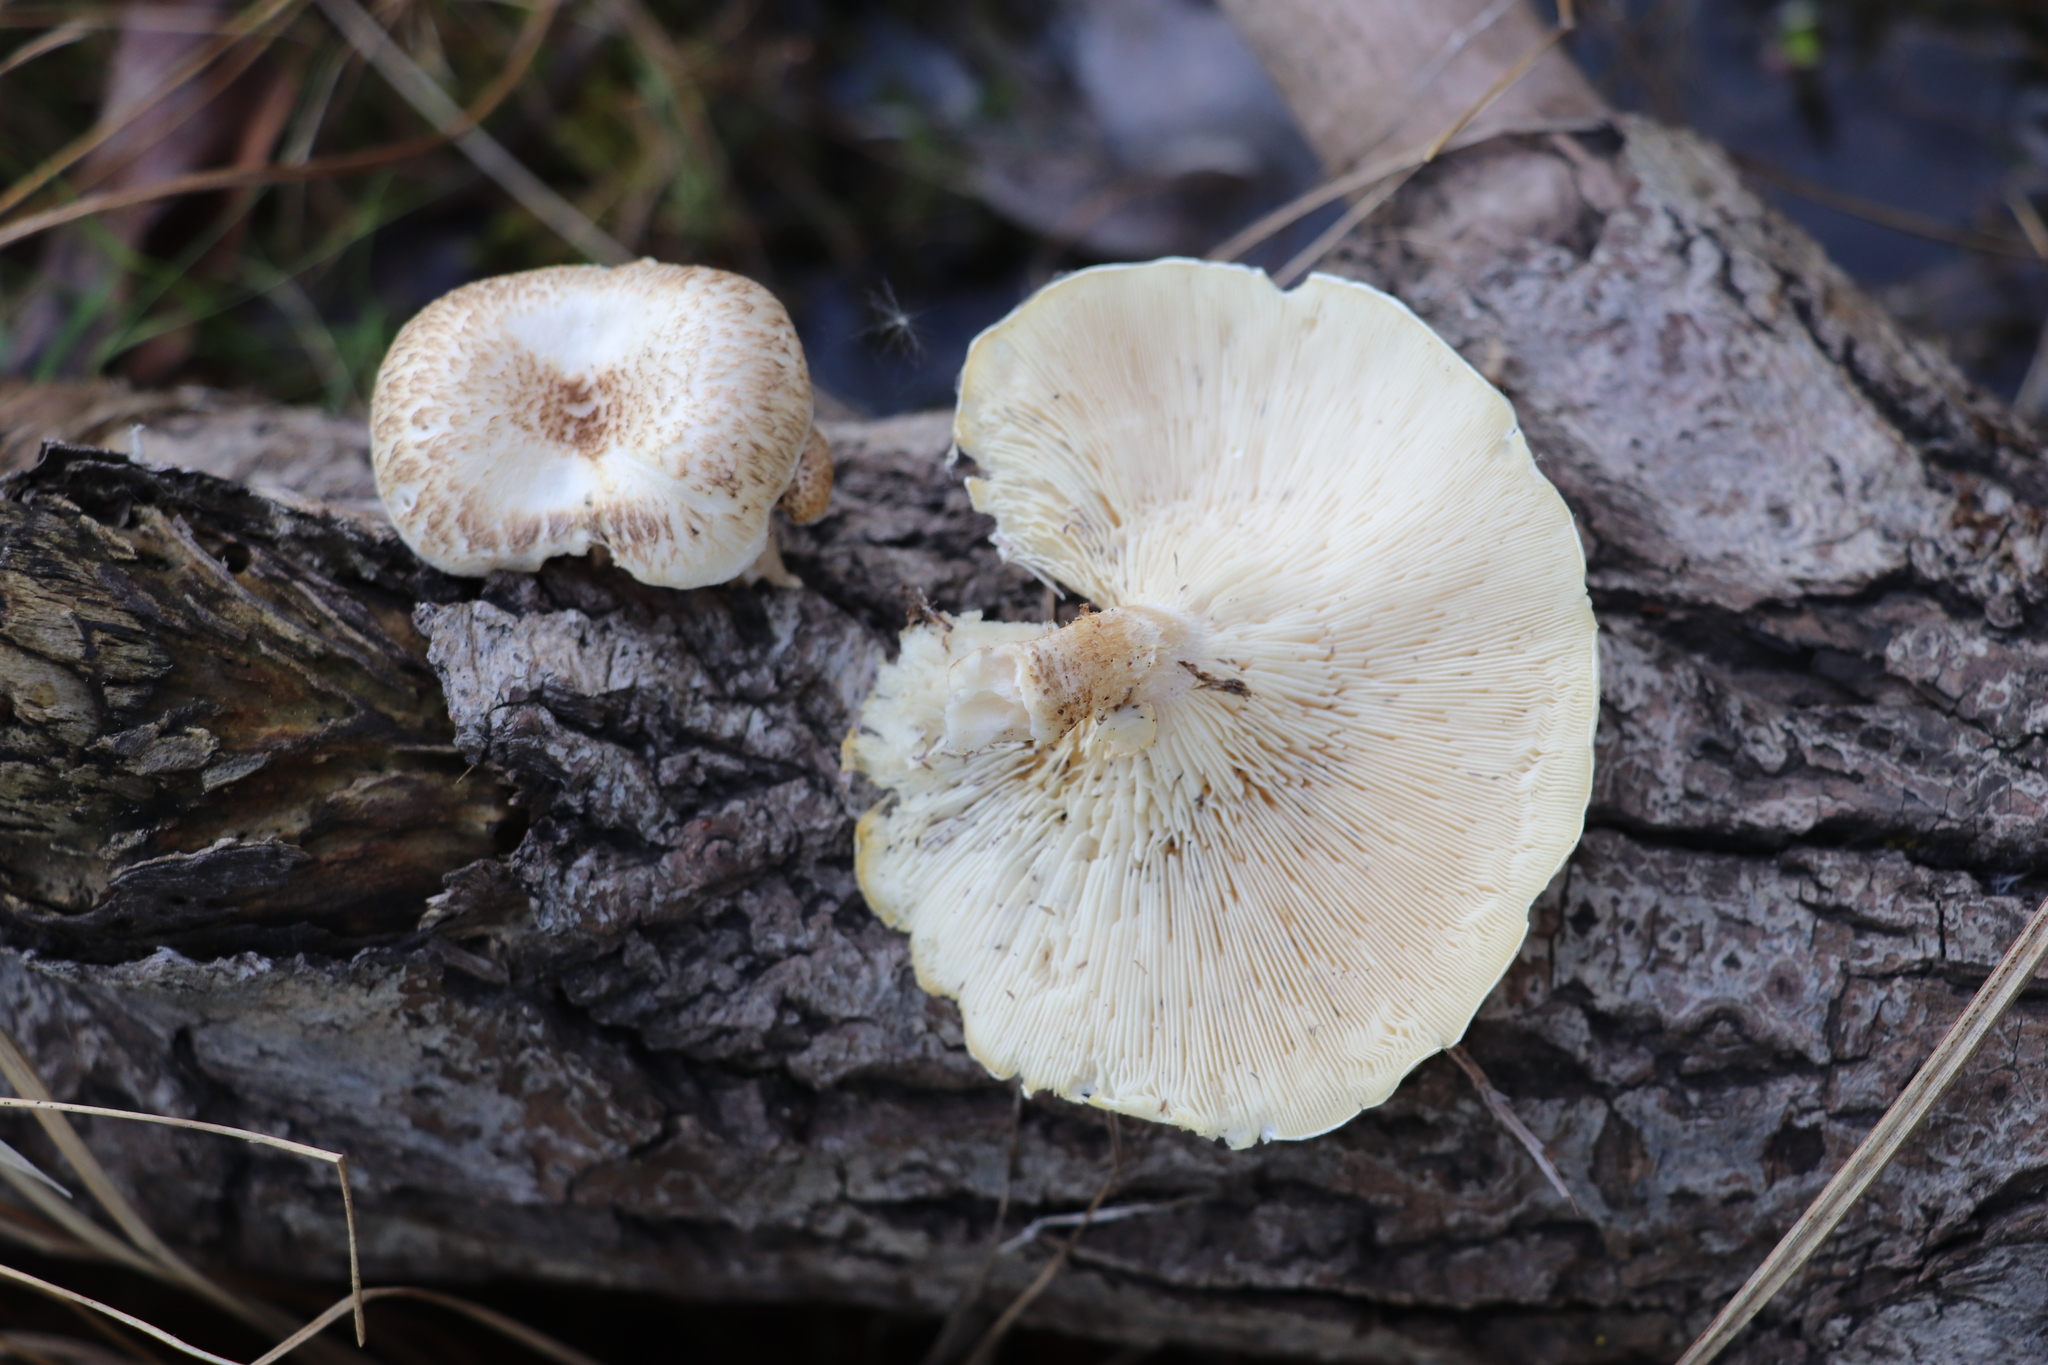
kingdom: Fungi
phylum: Basidiomycota
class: Agaricomycetes
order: Gloeophyllales
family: Gloeophyllaceae
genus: Neolentinus
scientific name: Neolentinus lepideus
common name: Scaly sawgill
